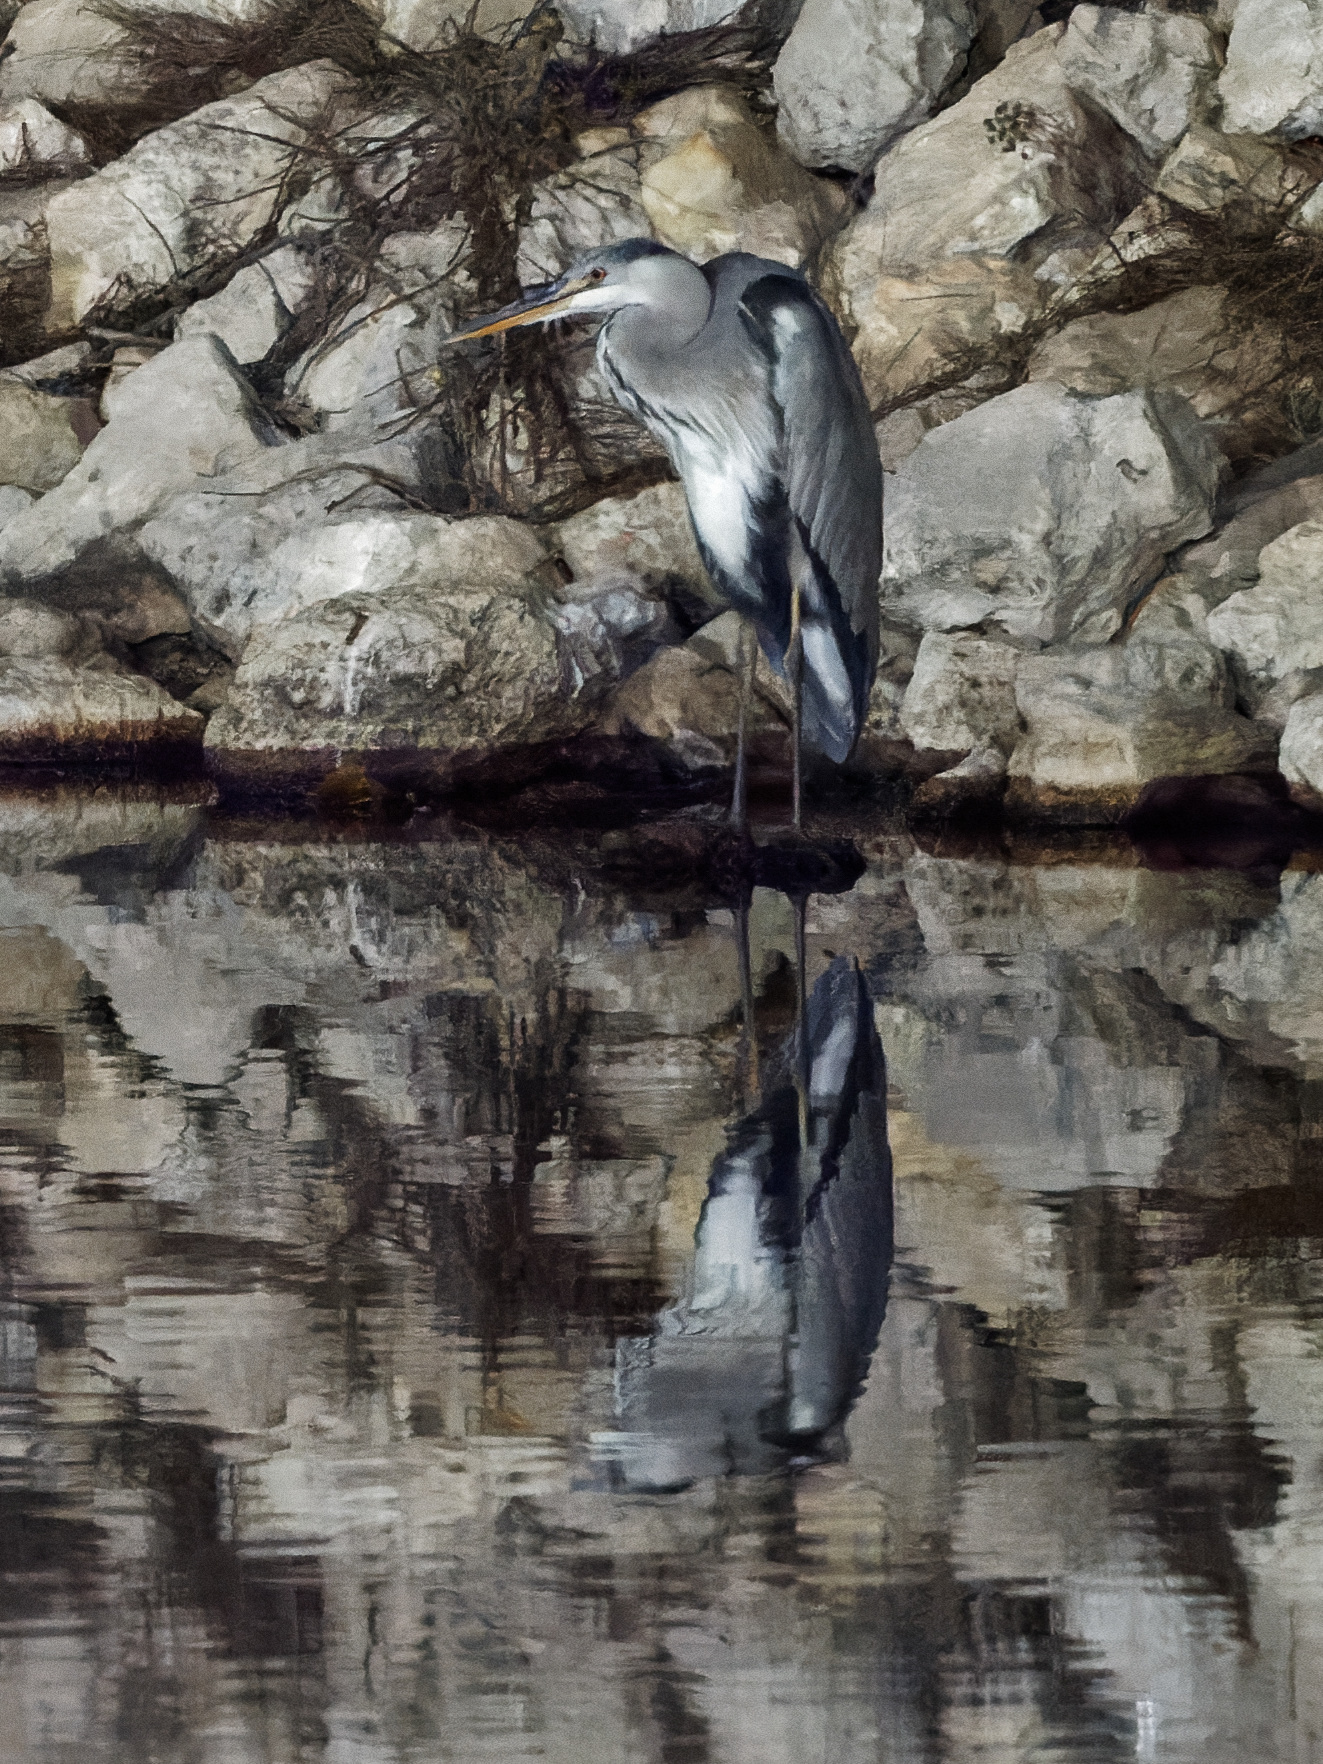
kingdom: Animalia
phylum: Chordata
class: Aves
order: Pelecaniformes
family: Ardeidae
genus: Ardea
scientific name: Ardea cinerea
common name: Grey heron
